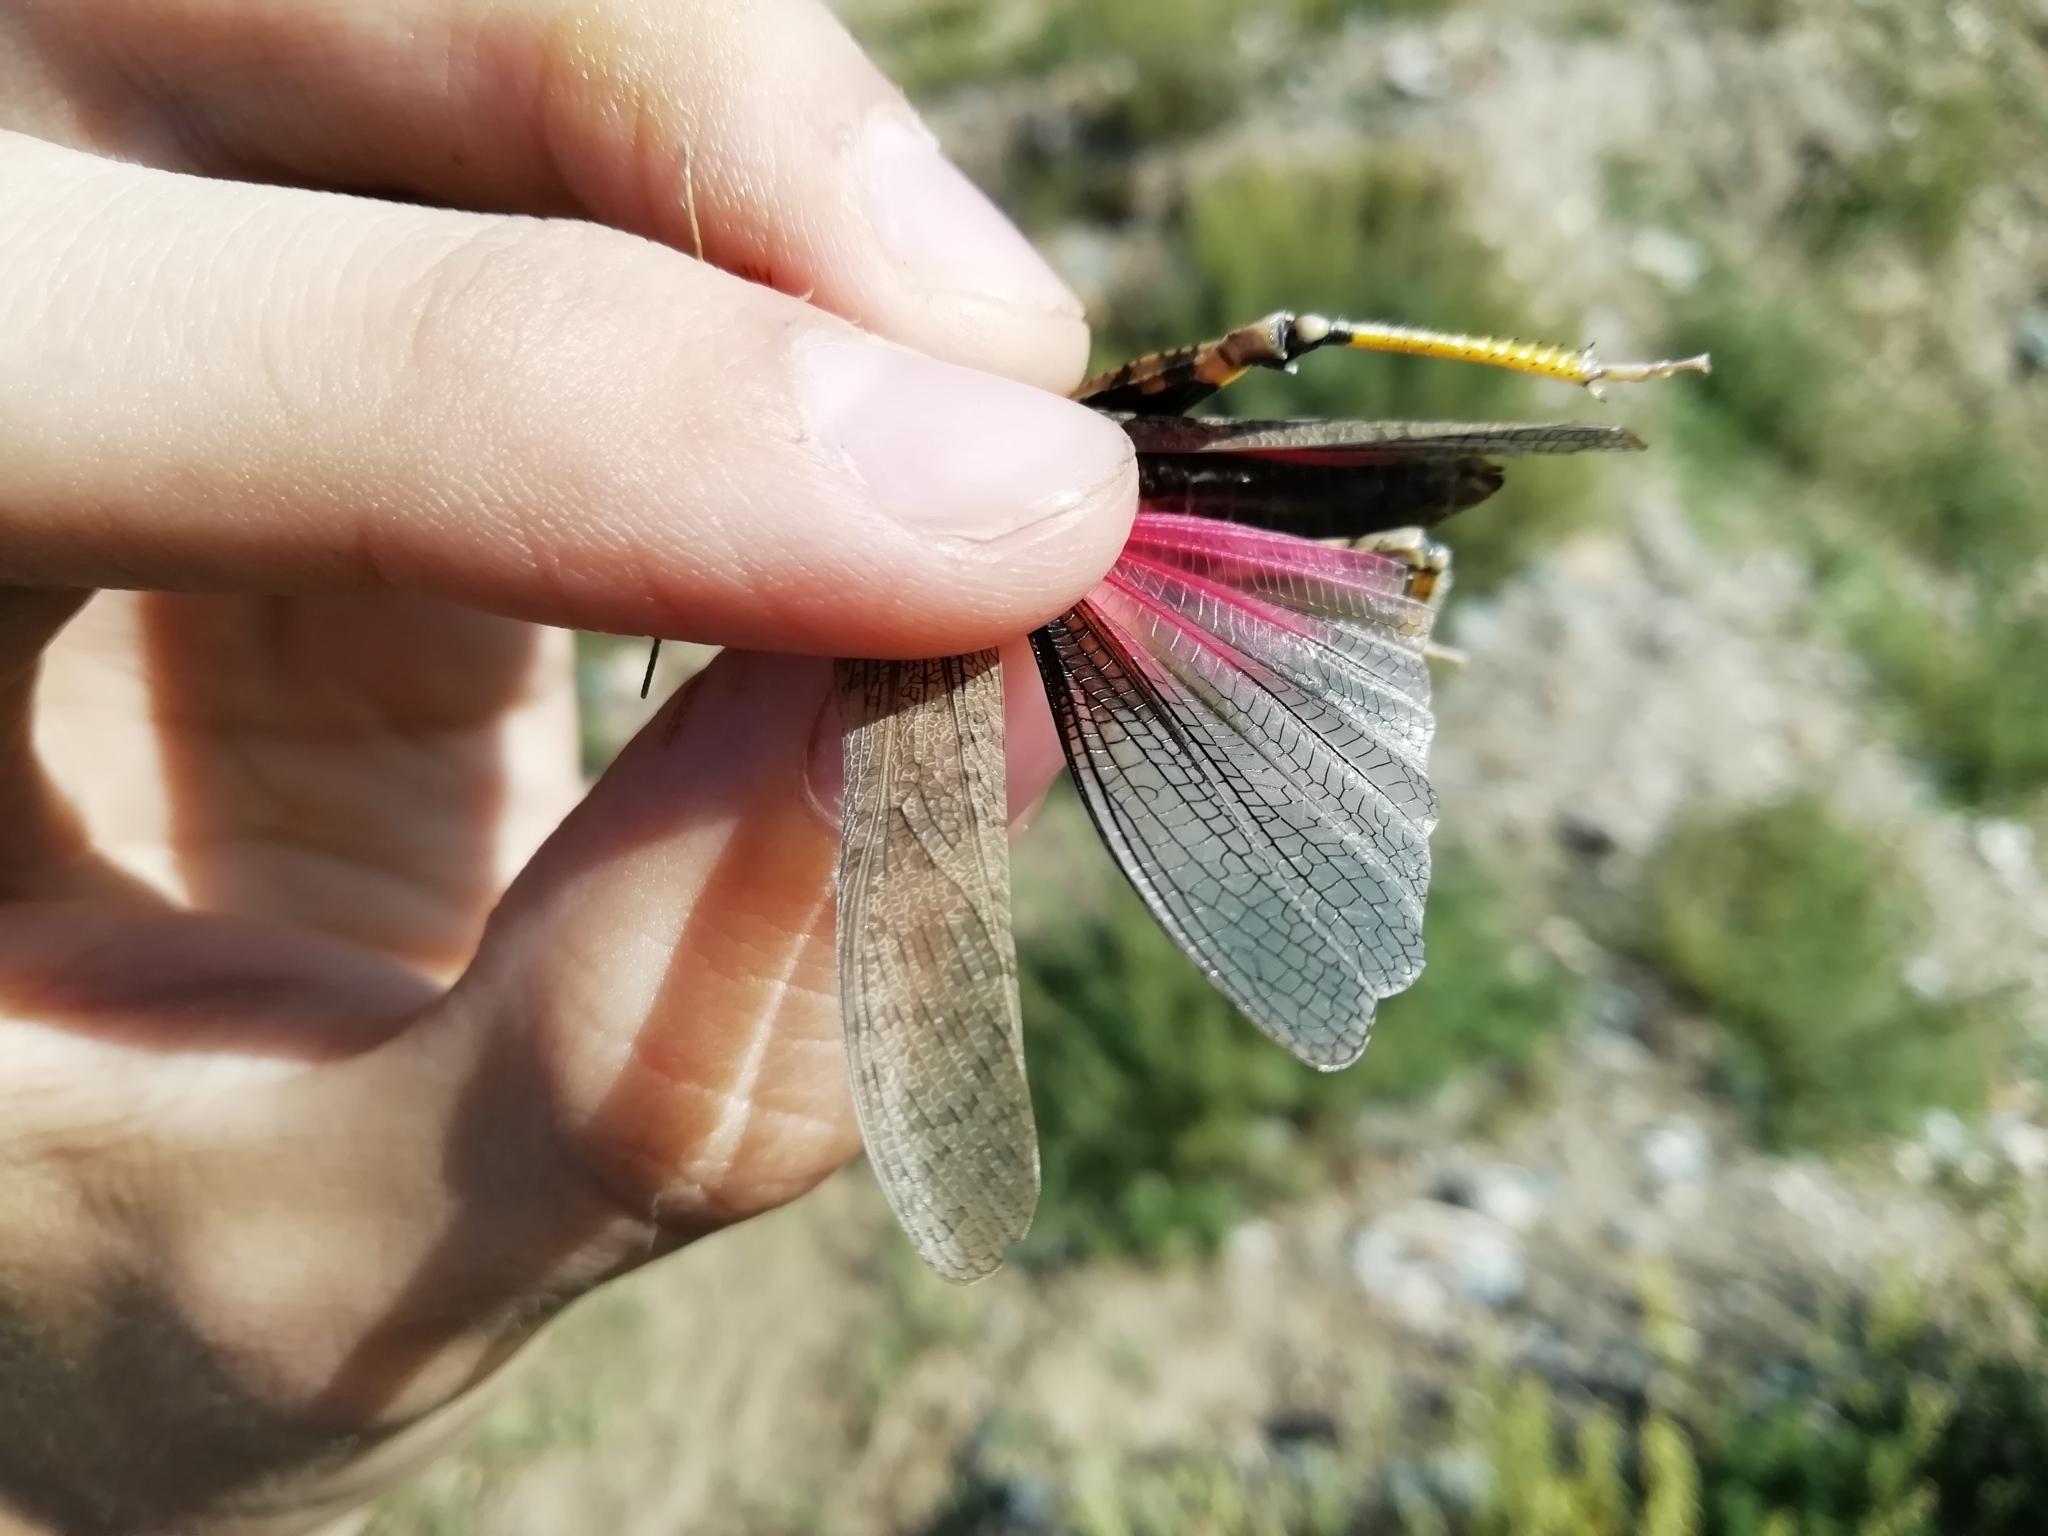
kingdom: Animalia
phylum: Arthropoda
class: Insecta
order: Orthoptera
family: Acrididae
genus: Bryodemella
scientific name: Bryodemella holdereri
